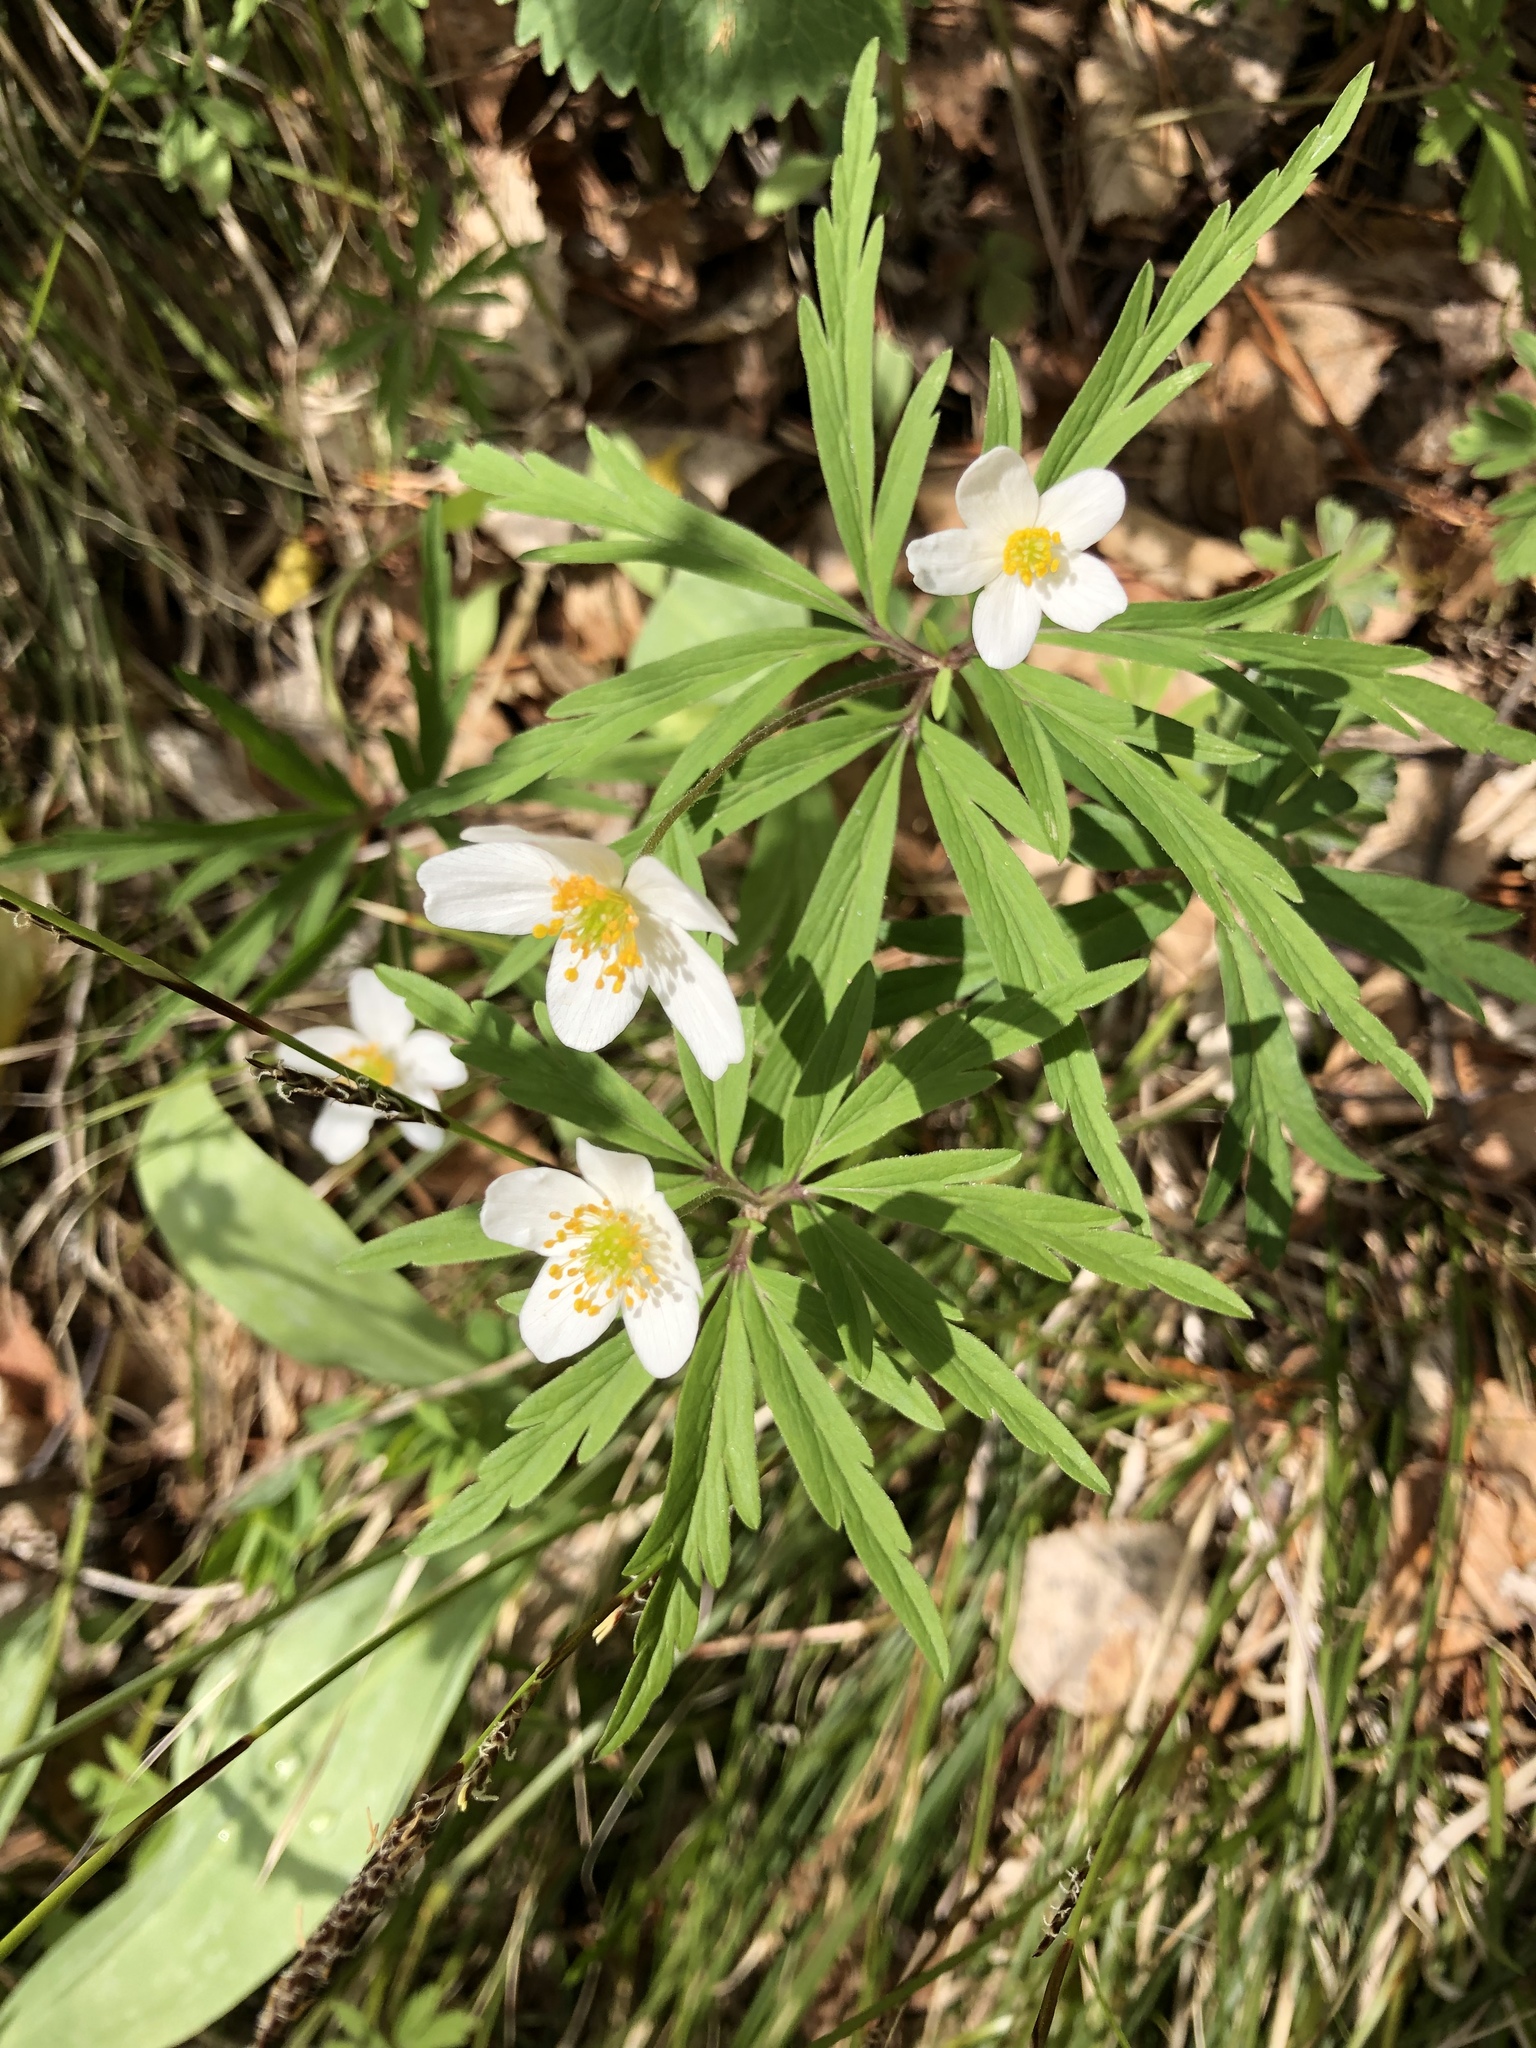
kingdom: Plantae
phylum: Tracheophyta
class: Magnoliopsida
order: Ranunculales
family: Ranunculaceae
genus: Anemone
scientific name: Anemone caerulea
